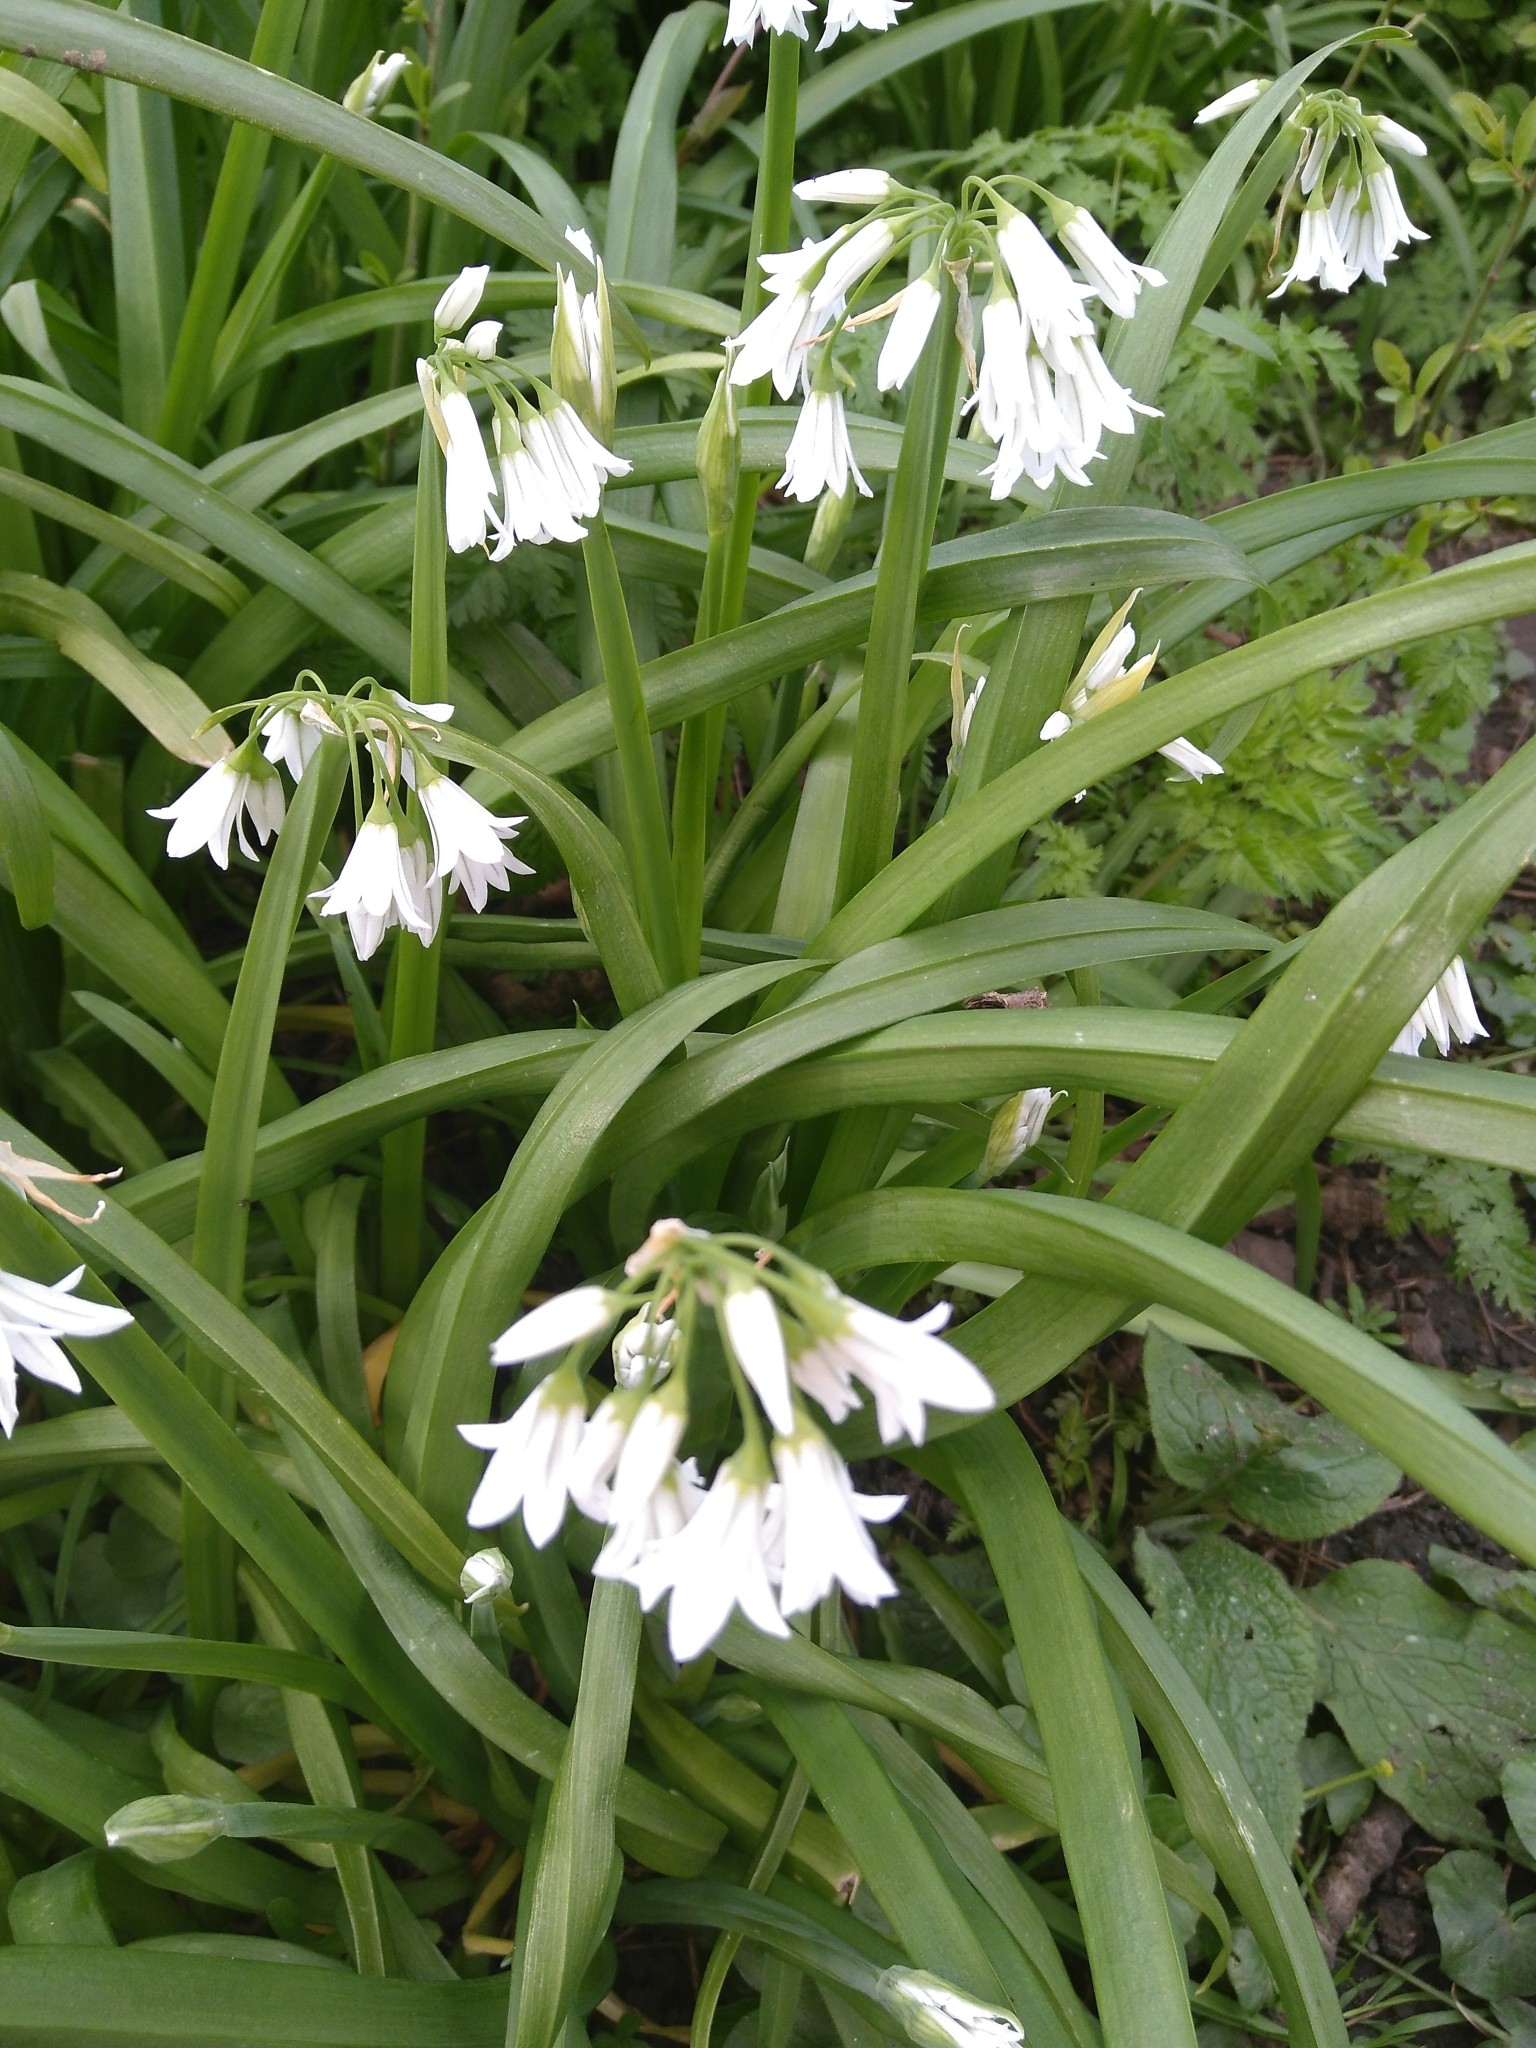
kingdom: Plantae
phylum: Tracheophyta
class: Liliopsida
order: Asparagales
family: Amaryllidaceae
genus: Allium
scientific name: Allium triquetrum
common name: Three-cornered garlic
